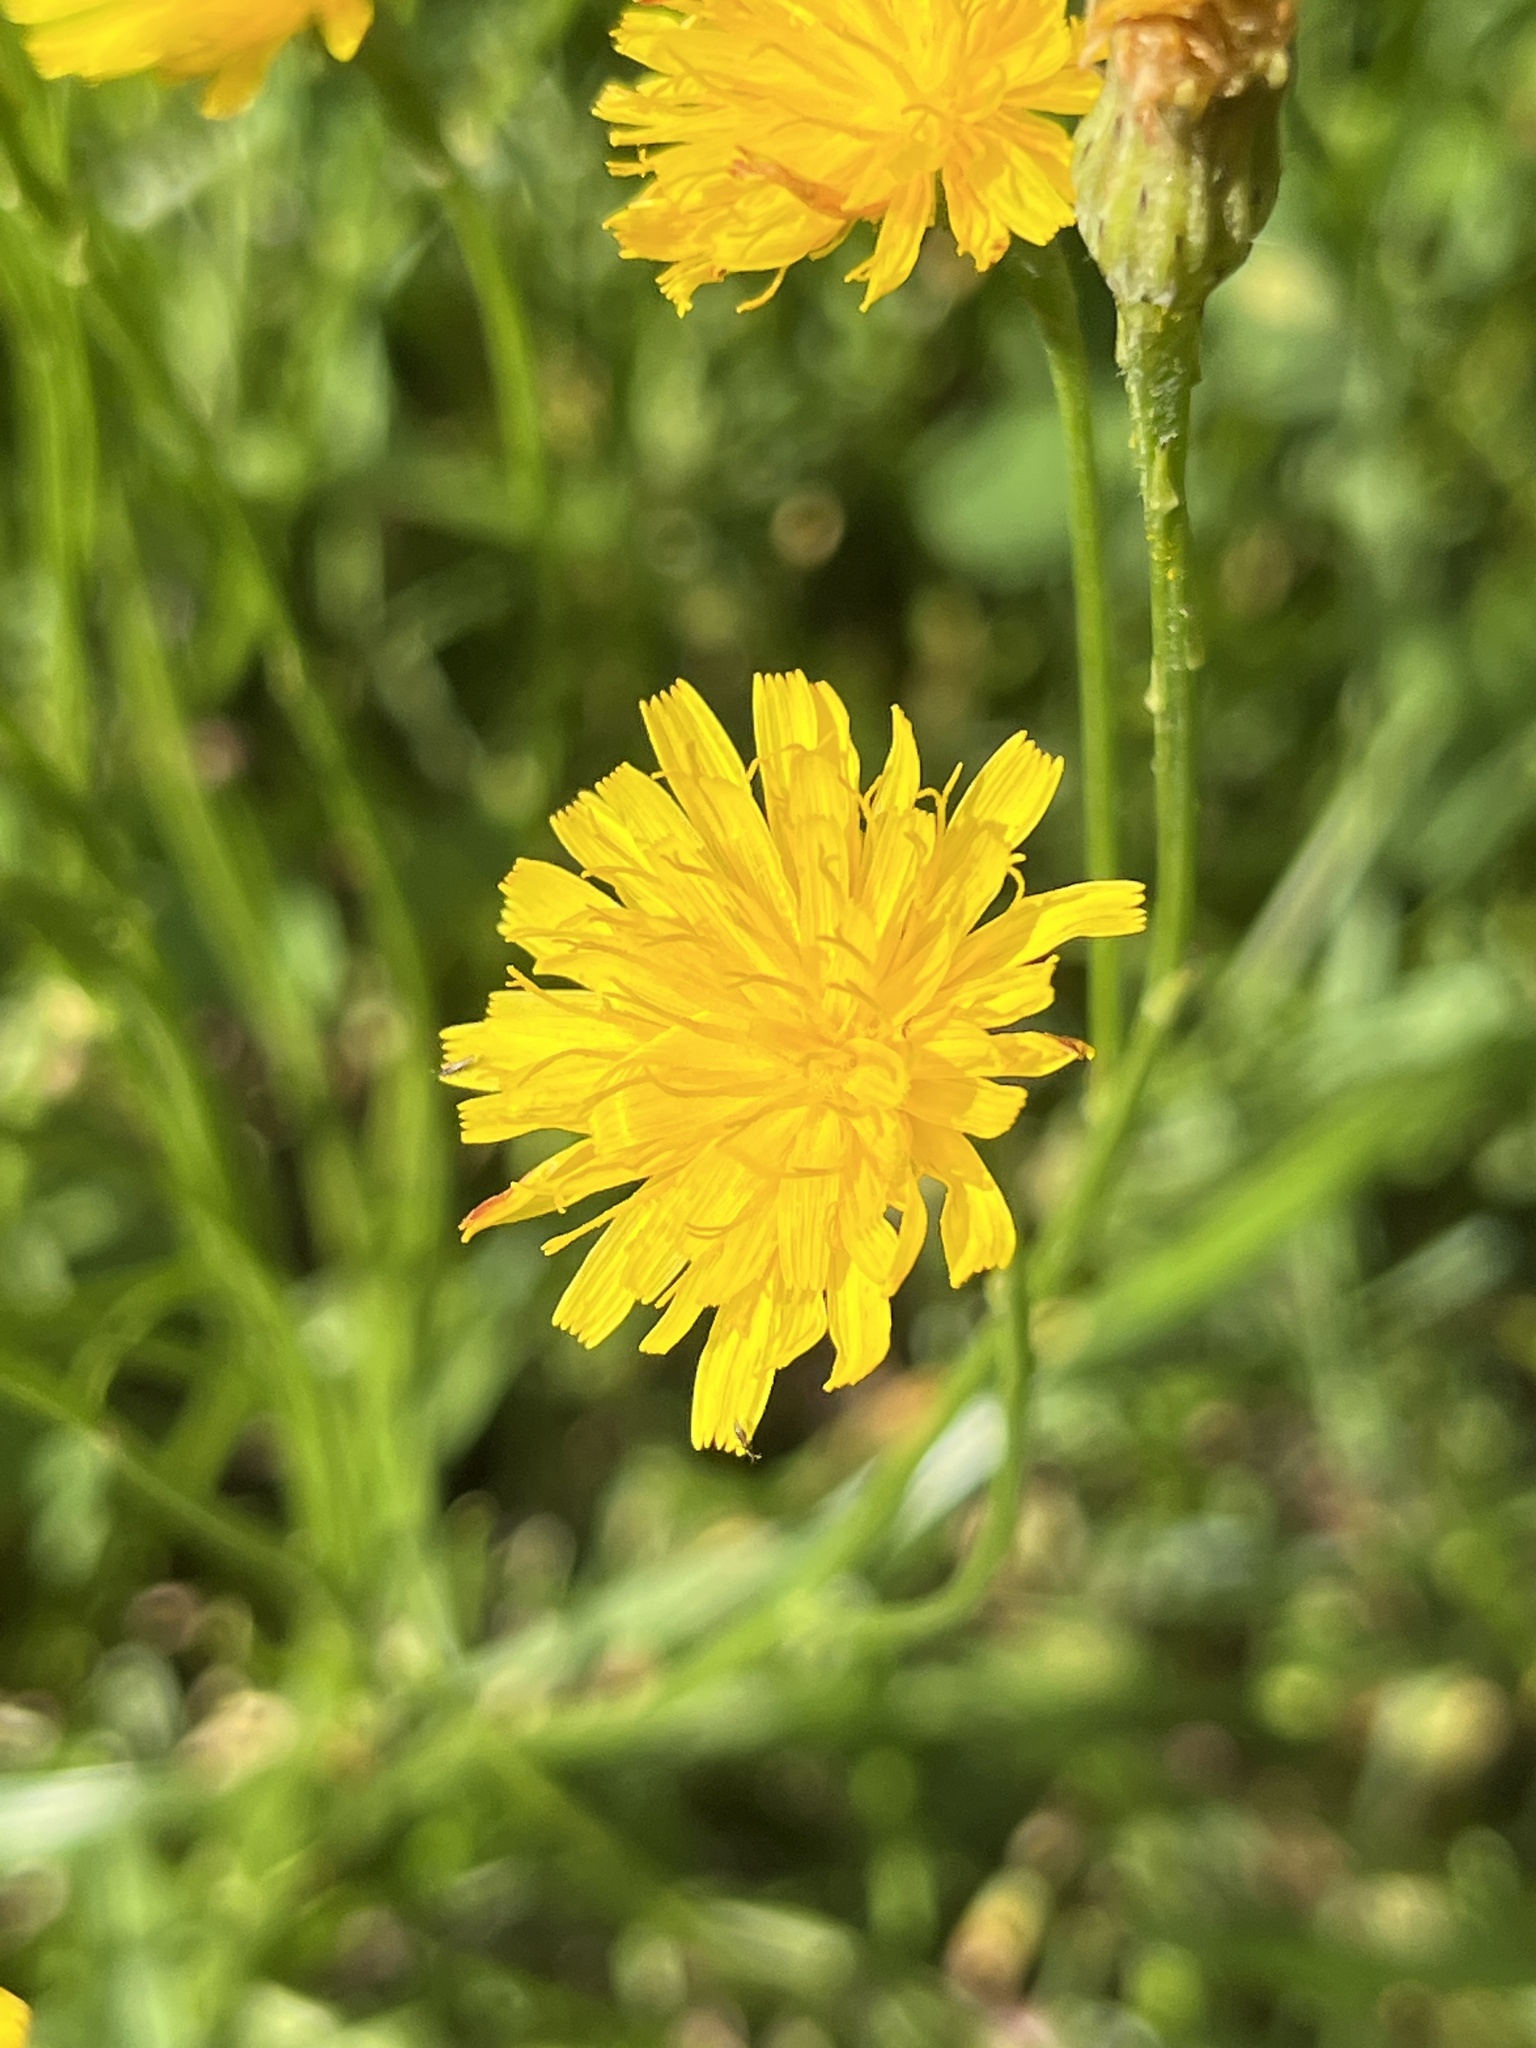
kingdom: Plantae
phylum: Tracheophyta
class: Magnoliopsida
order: Asterales
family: Asteraceae
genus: Scorzoneroides
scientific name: Scorzoneroides autumnalis
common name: Autumn hawkbit
